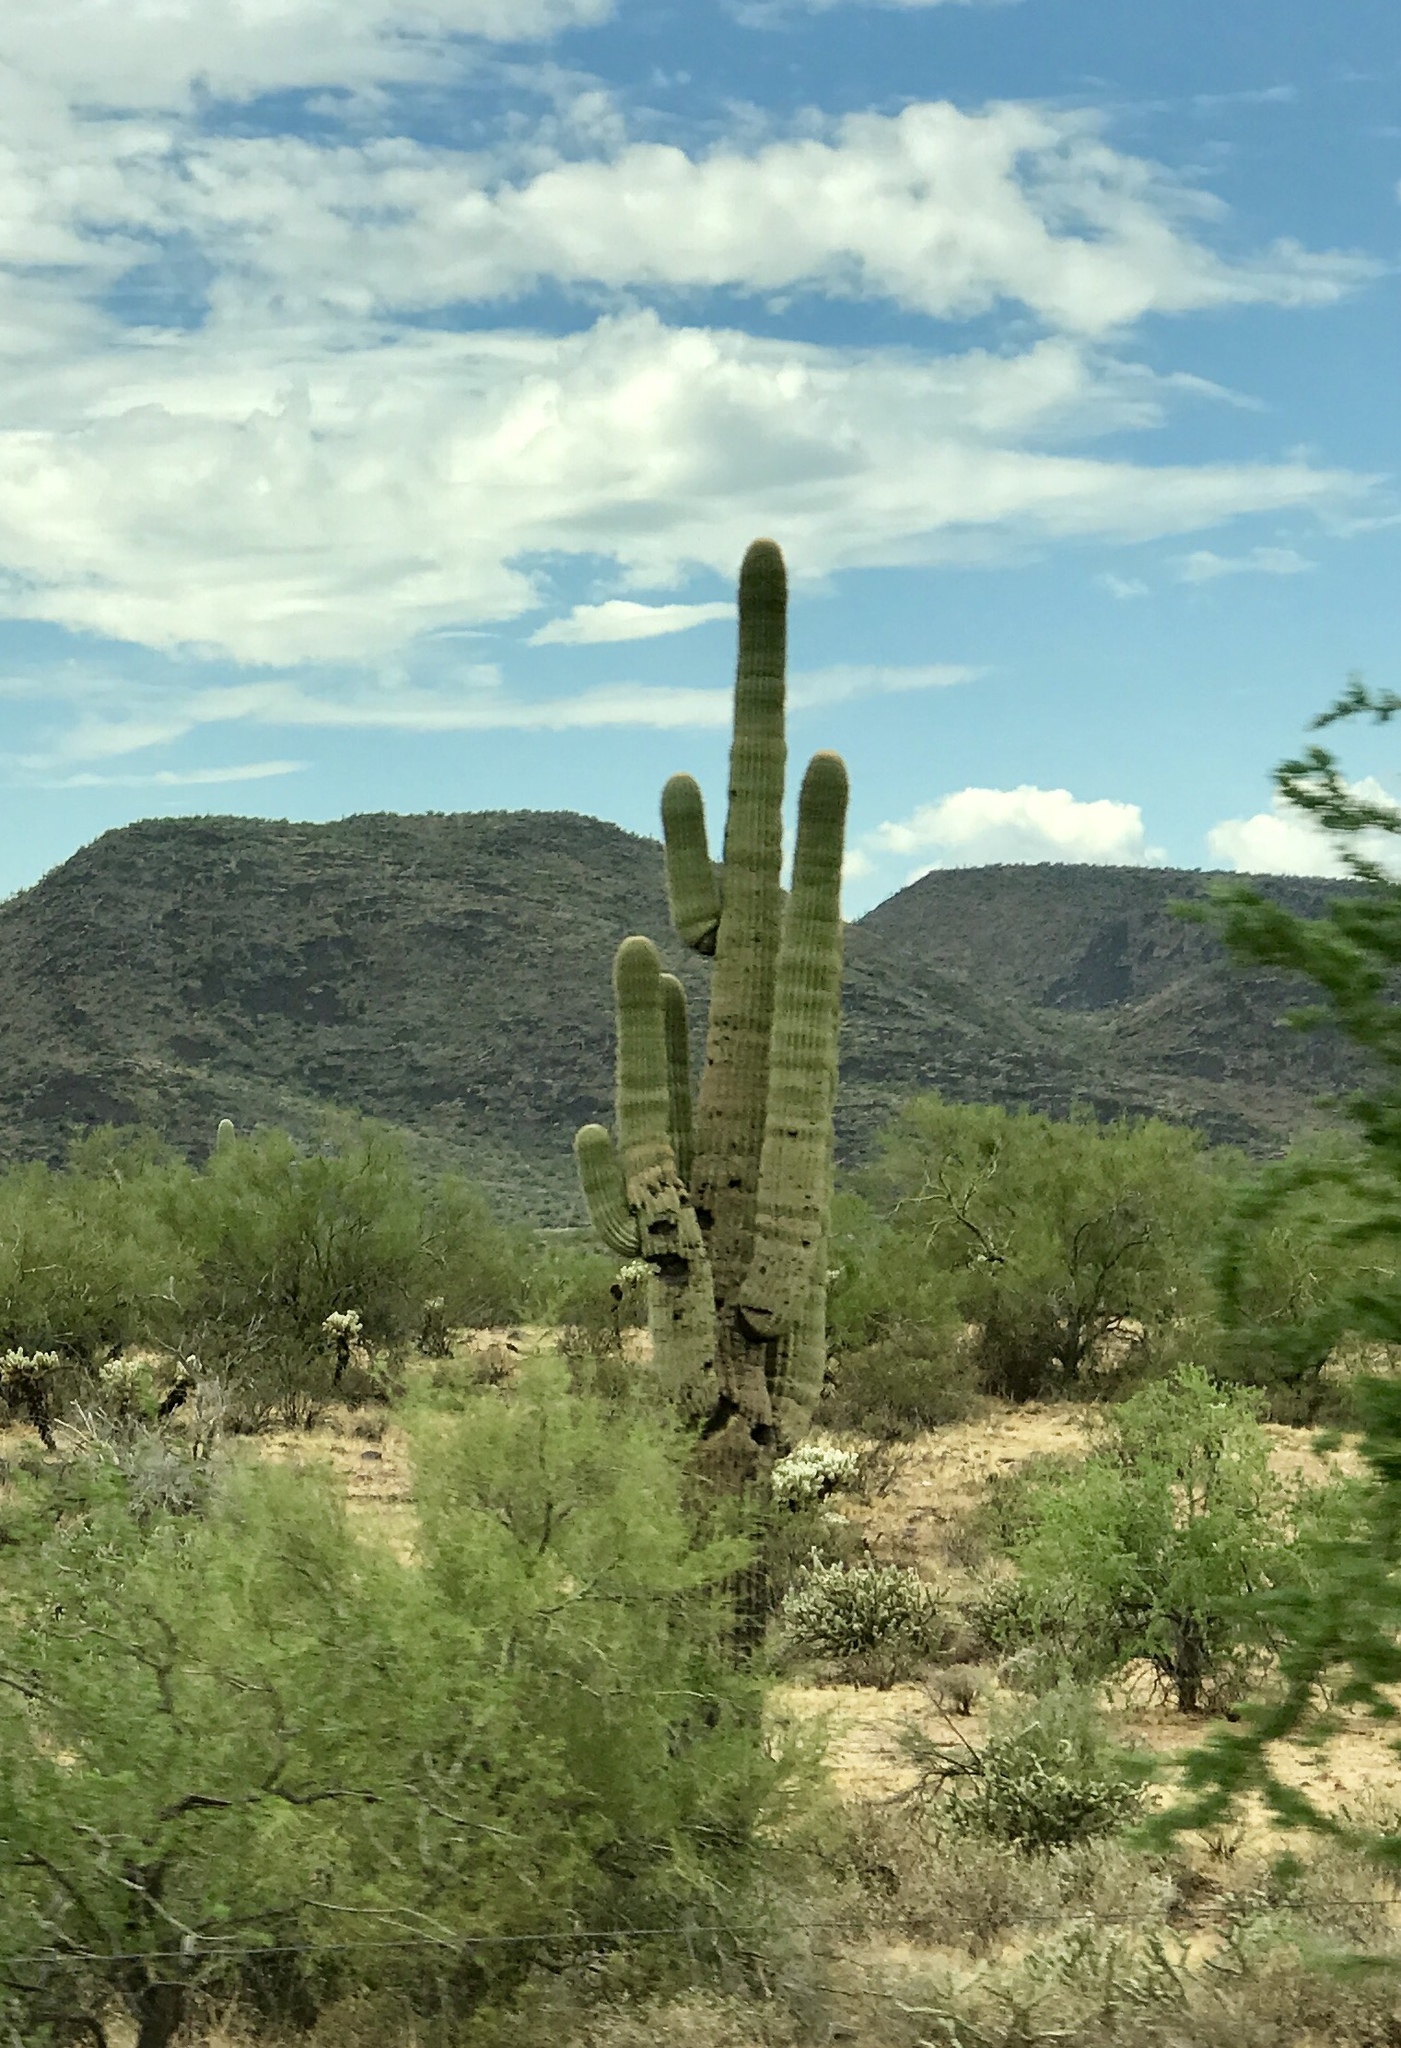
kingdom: Plantae
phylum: Tracheophyta
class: Magnoliopsida
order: Caryophyllales
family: Cactaceae
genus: Carnegiea
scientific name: Carnegiea gigantea
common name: Saguaro
